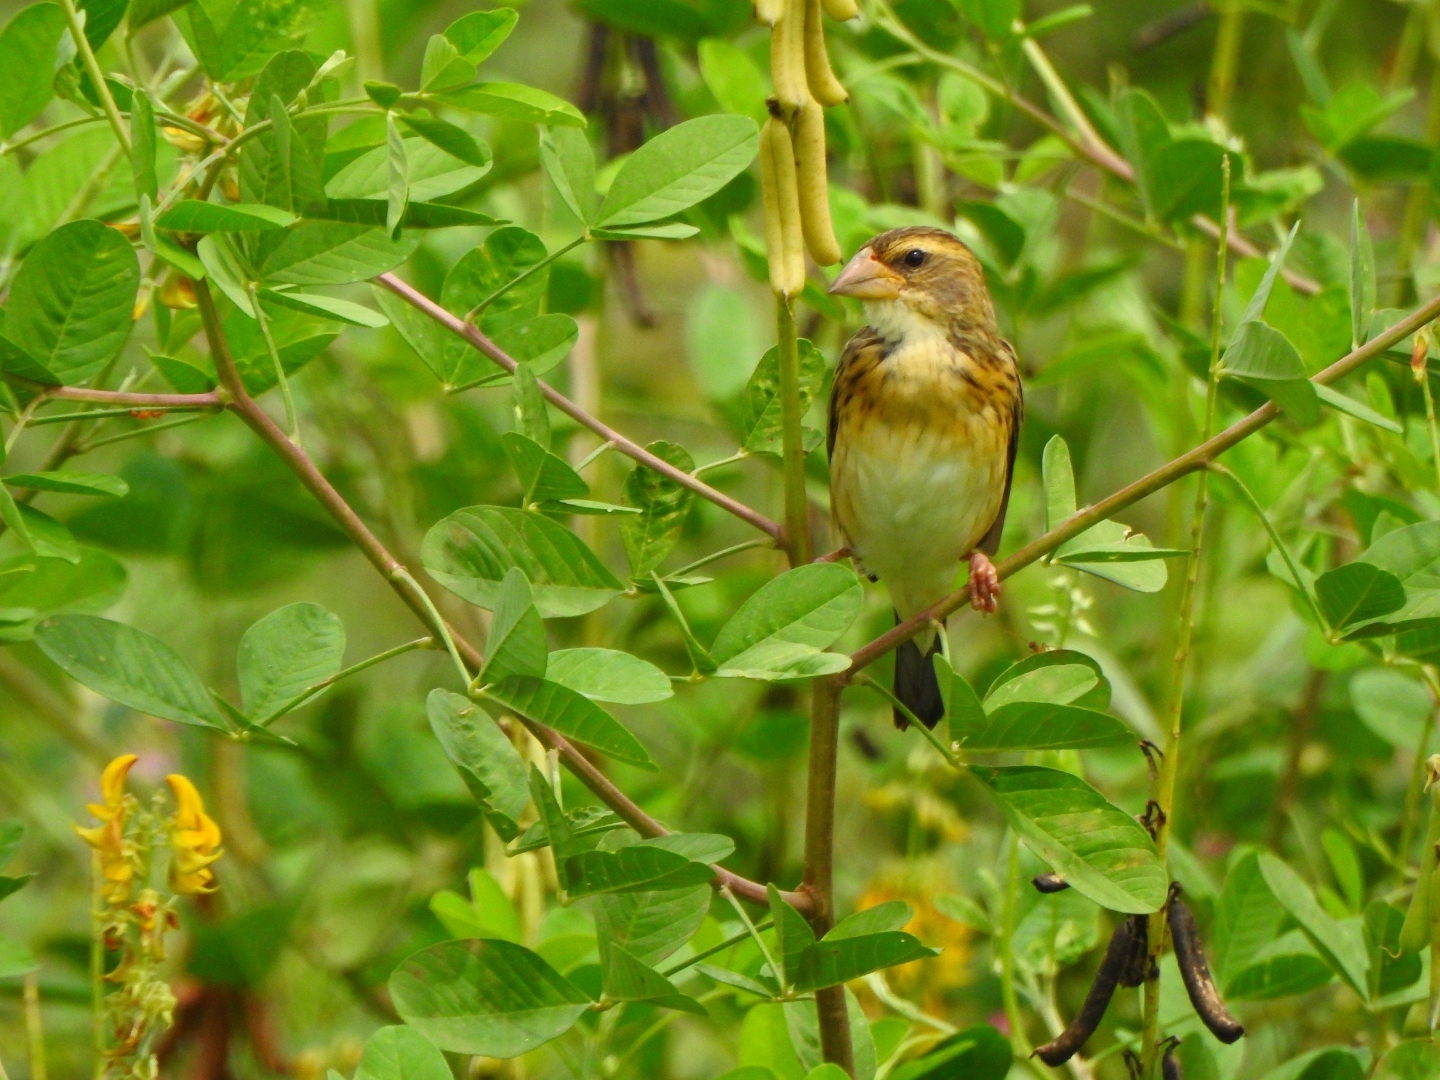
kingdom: Animalia
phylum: Chordata
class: Aves
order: Passeriformes
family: Ploceidae
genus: Ploceus
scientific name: Ploceus philippinus
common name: Baya weaver
